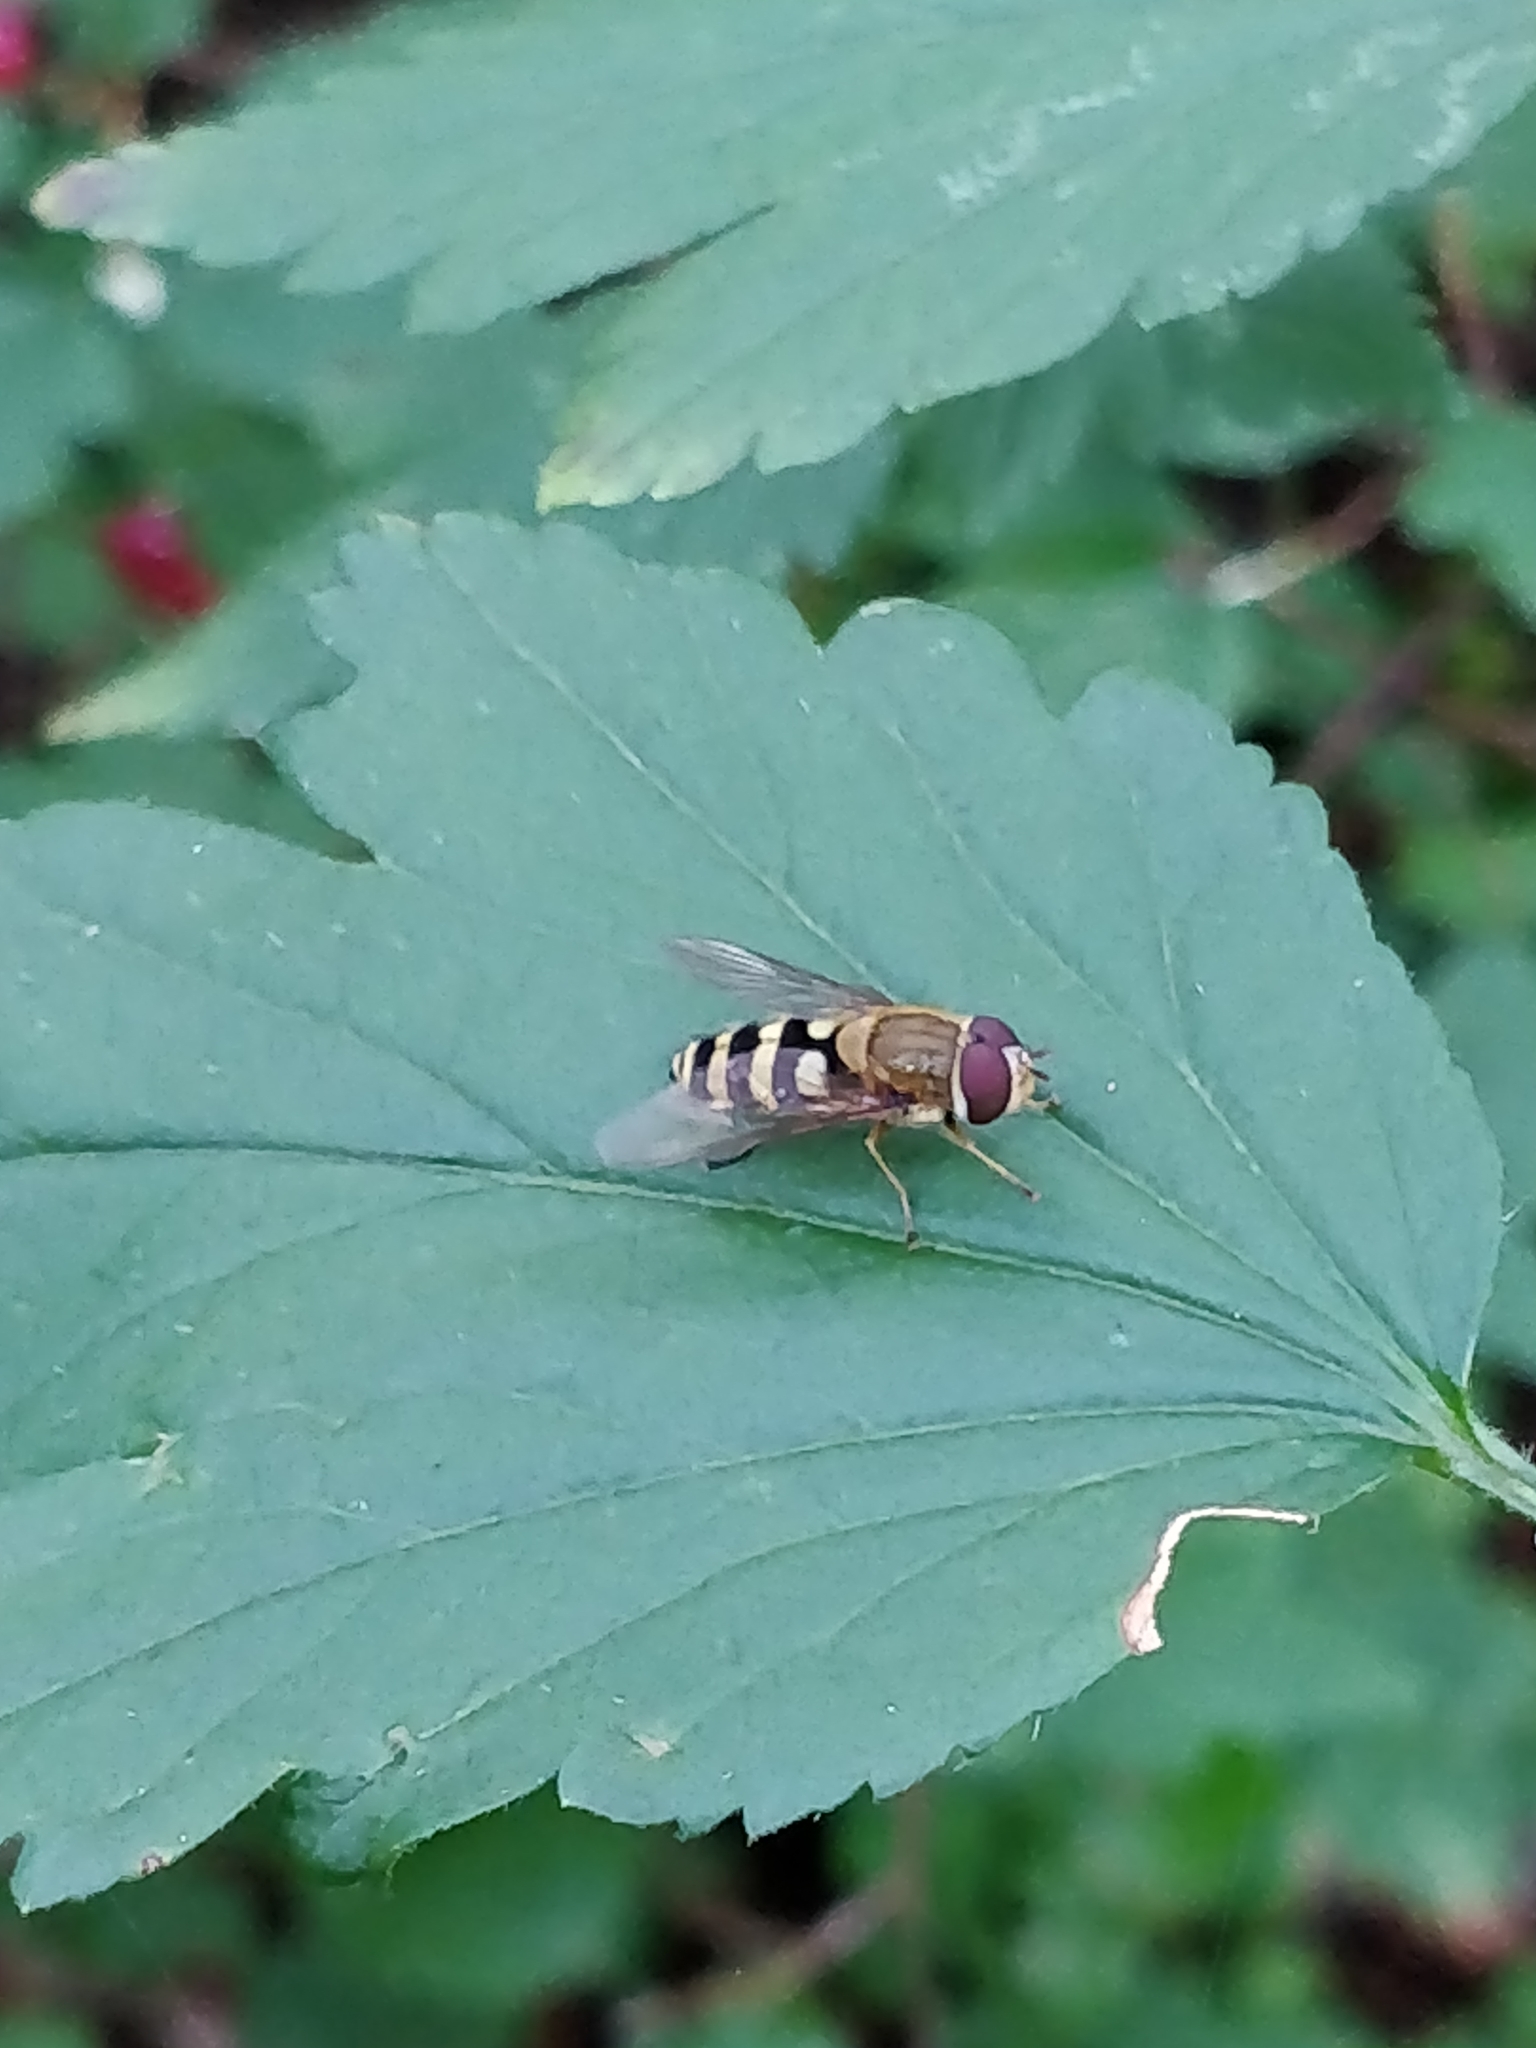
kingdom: Animalia
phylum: Arthropoda
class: Insecta
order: Diptera
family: Syrphidae
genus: Syrphus
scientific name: Syrphus
